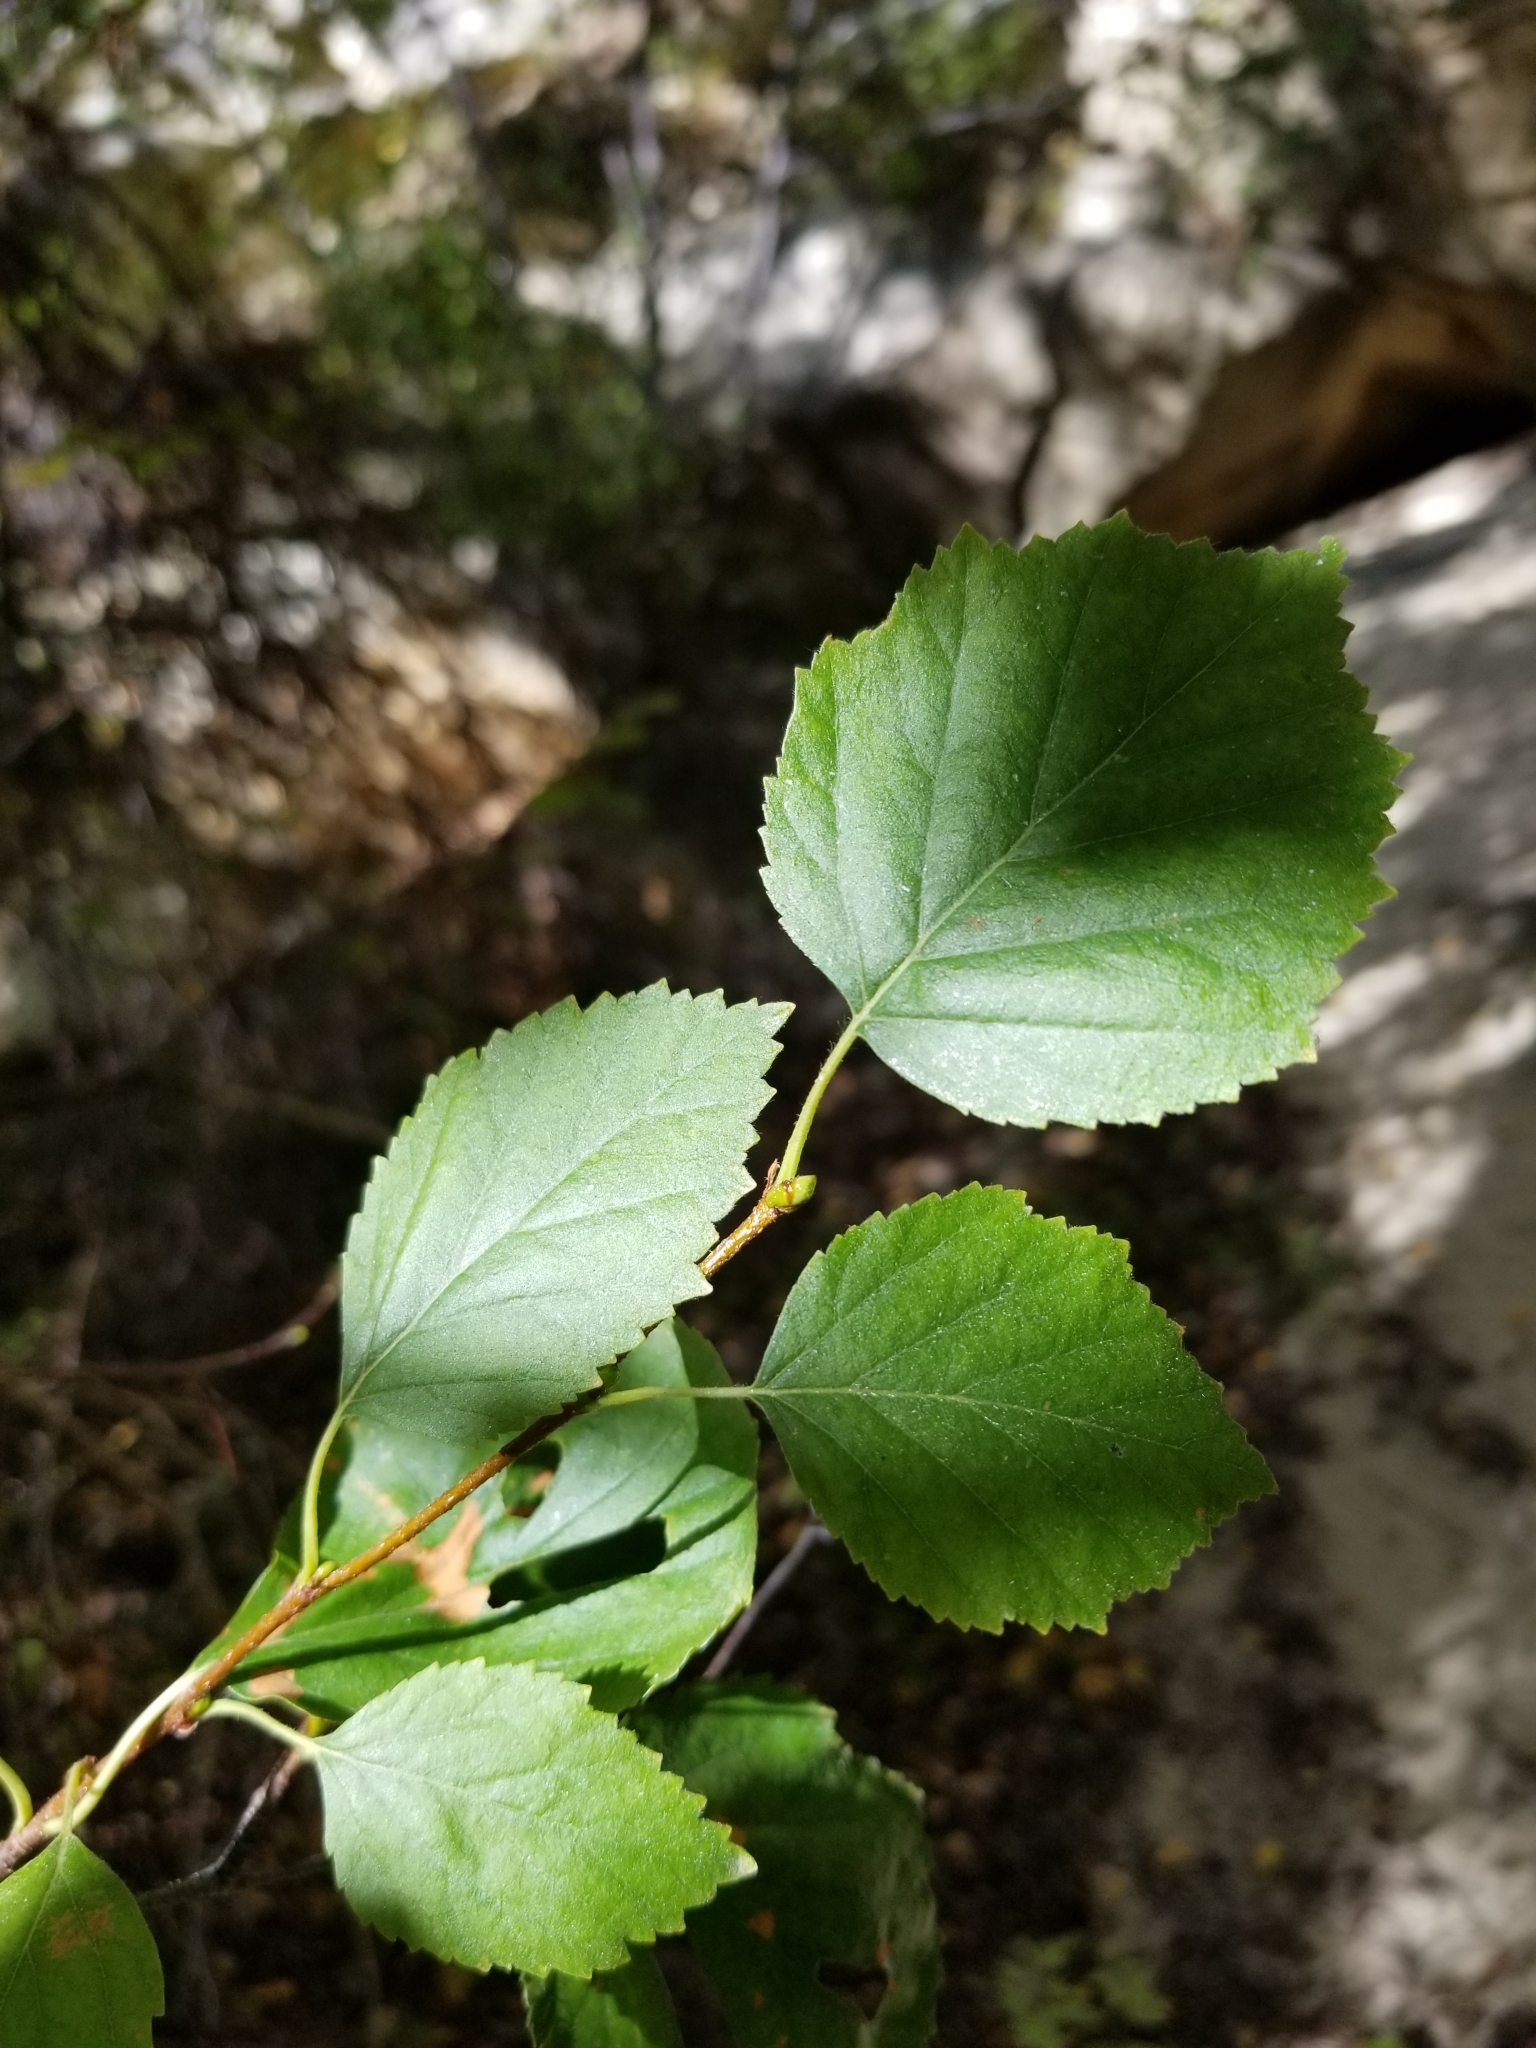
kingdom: Plantae
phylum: Tracheophyta
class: Magnoliopsida
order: Fagales
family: Betulaceae
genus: Betula
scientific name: Betula occidentalis
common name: River birch
